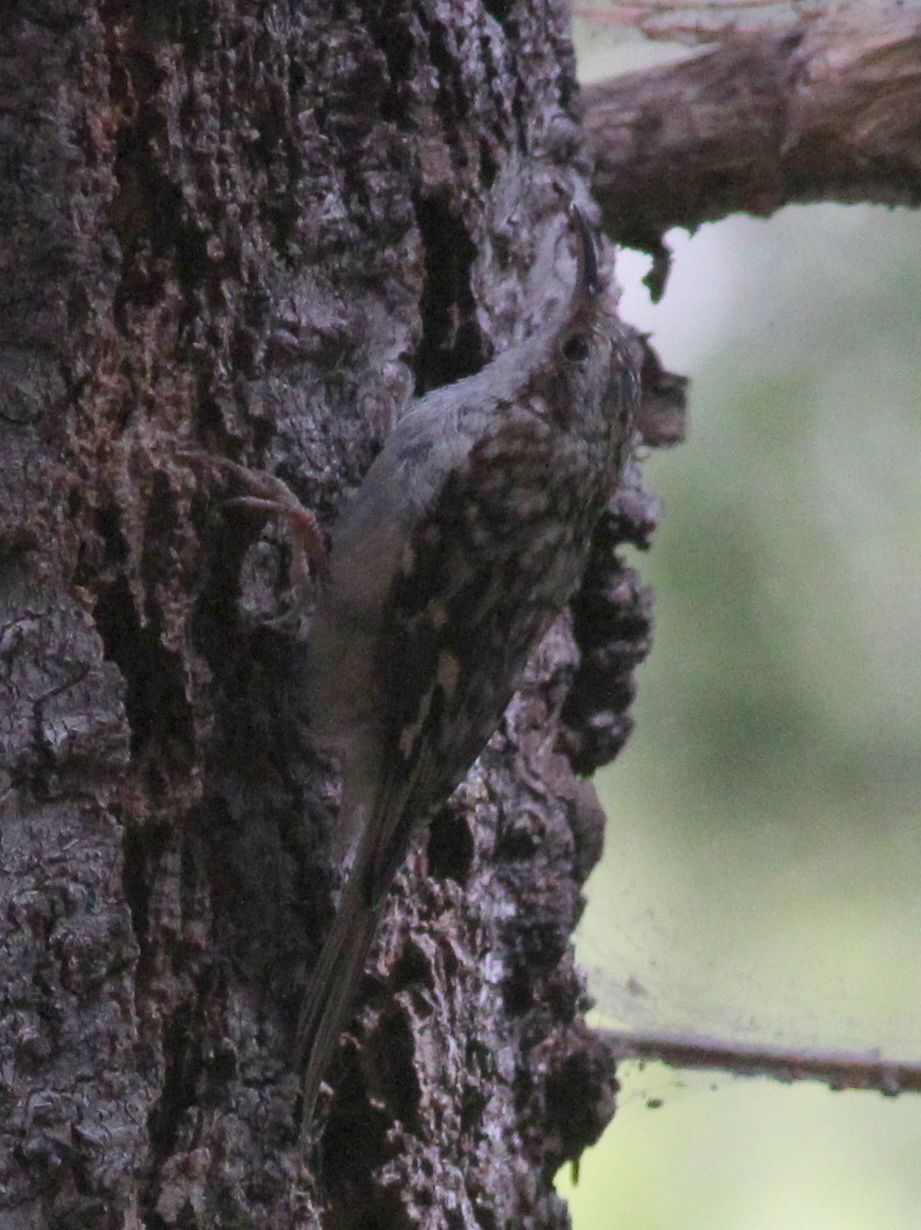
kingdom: Animalia
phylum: Chordata
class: Aves
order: Passeriformes
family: Certhiidae
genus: Certhia
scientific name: Certhia americana
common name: Brown creeper
